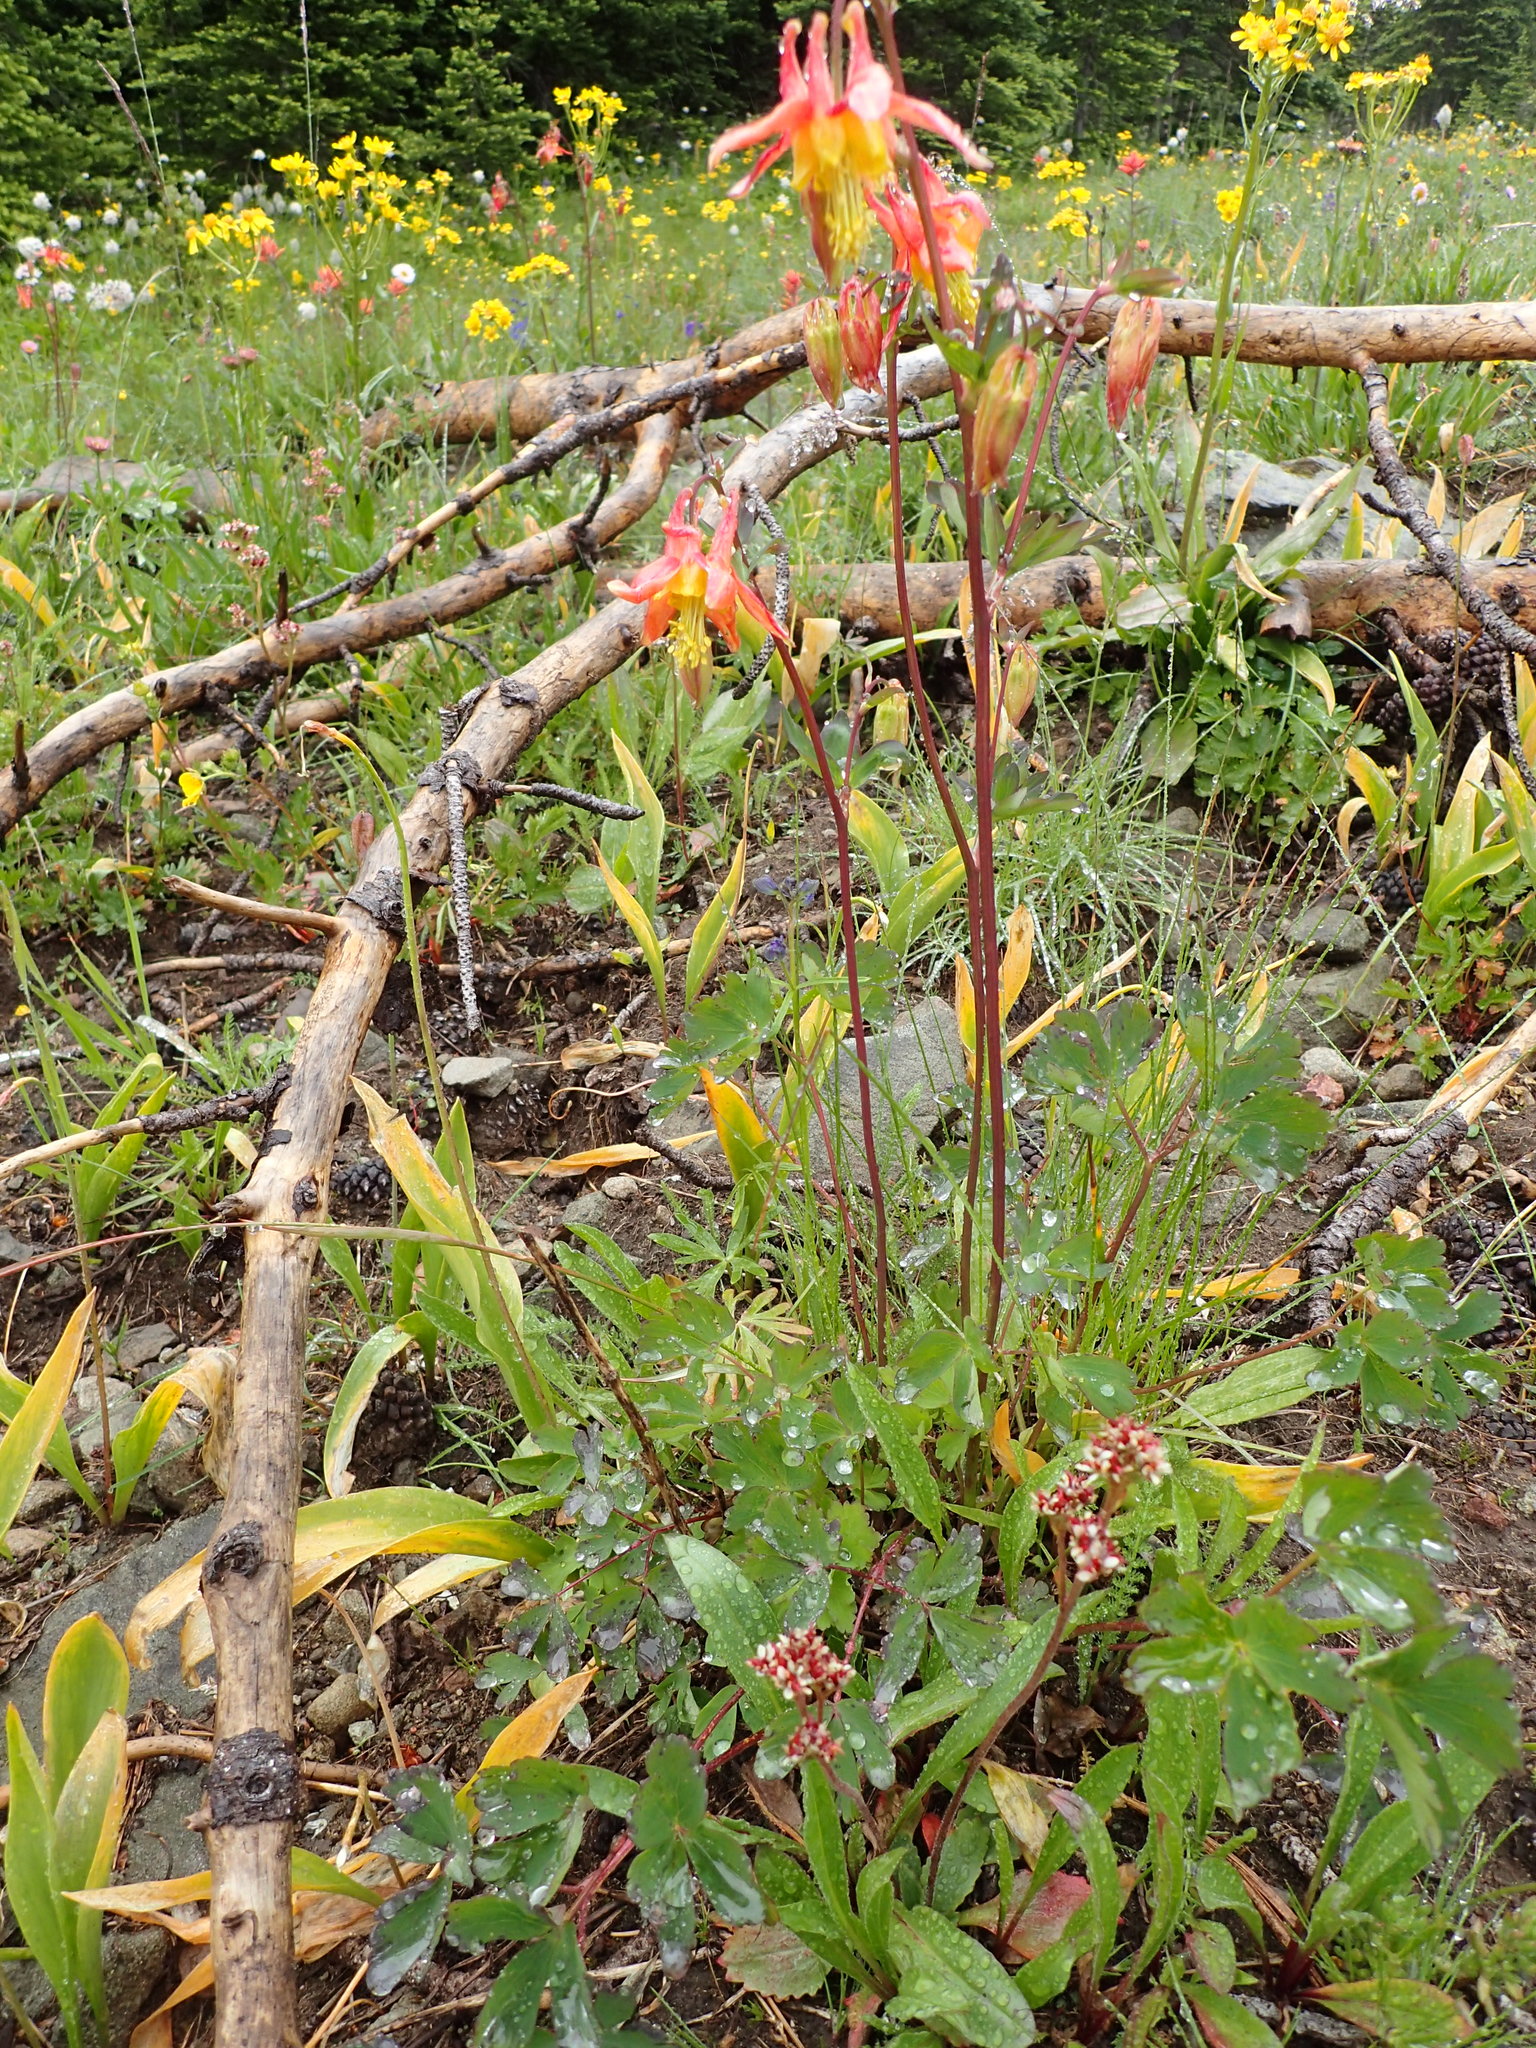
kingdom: Plantae
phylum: Tracheophyta
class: Magnoliopsida
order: Ranunculales
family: Ranunculaceae
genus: Aquilegia
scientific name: Aquilegia formosa
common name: Sitka columbine
